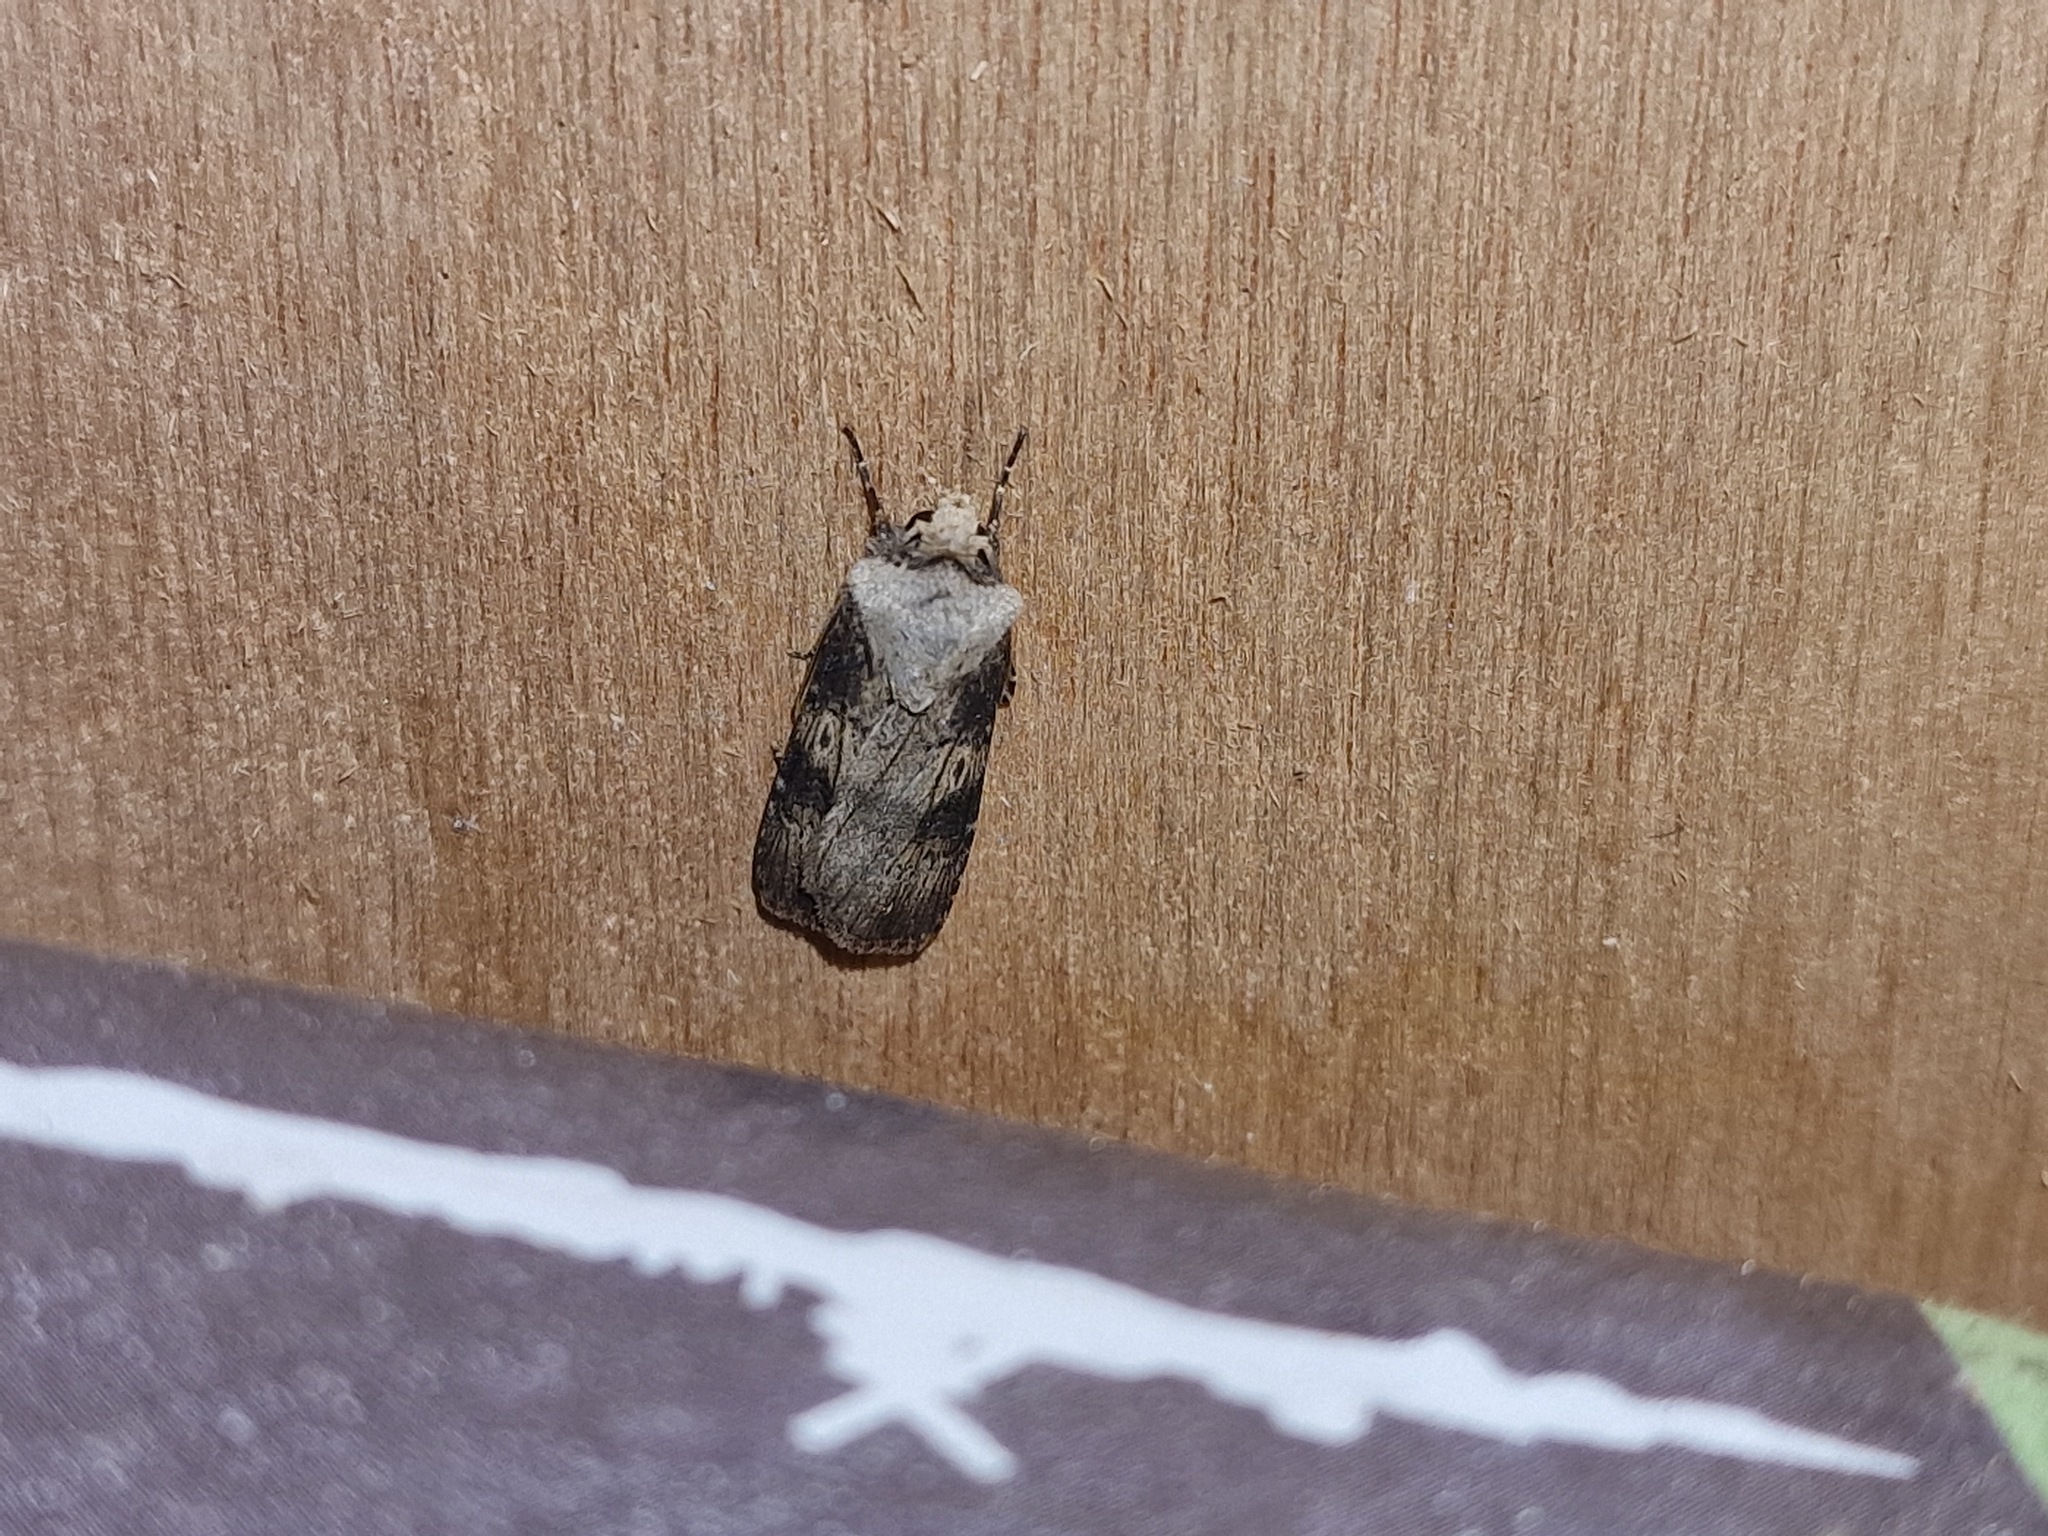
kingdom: Animalia
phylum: Arthropoda
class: Insecta
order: Lepidoptera
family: Noctuidae
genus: Agrotis
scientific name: Agrotis puta
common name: Shuttle-shaped dart
